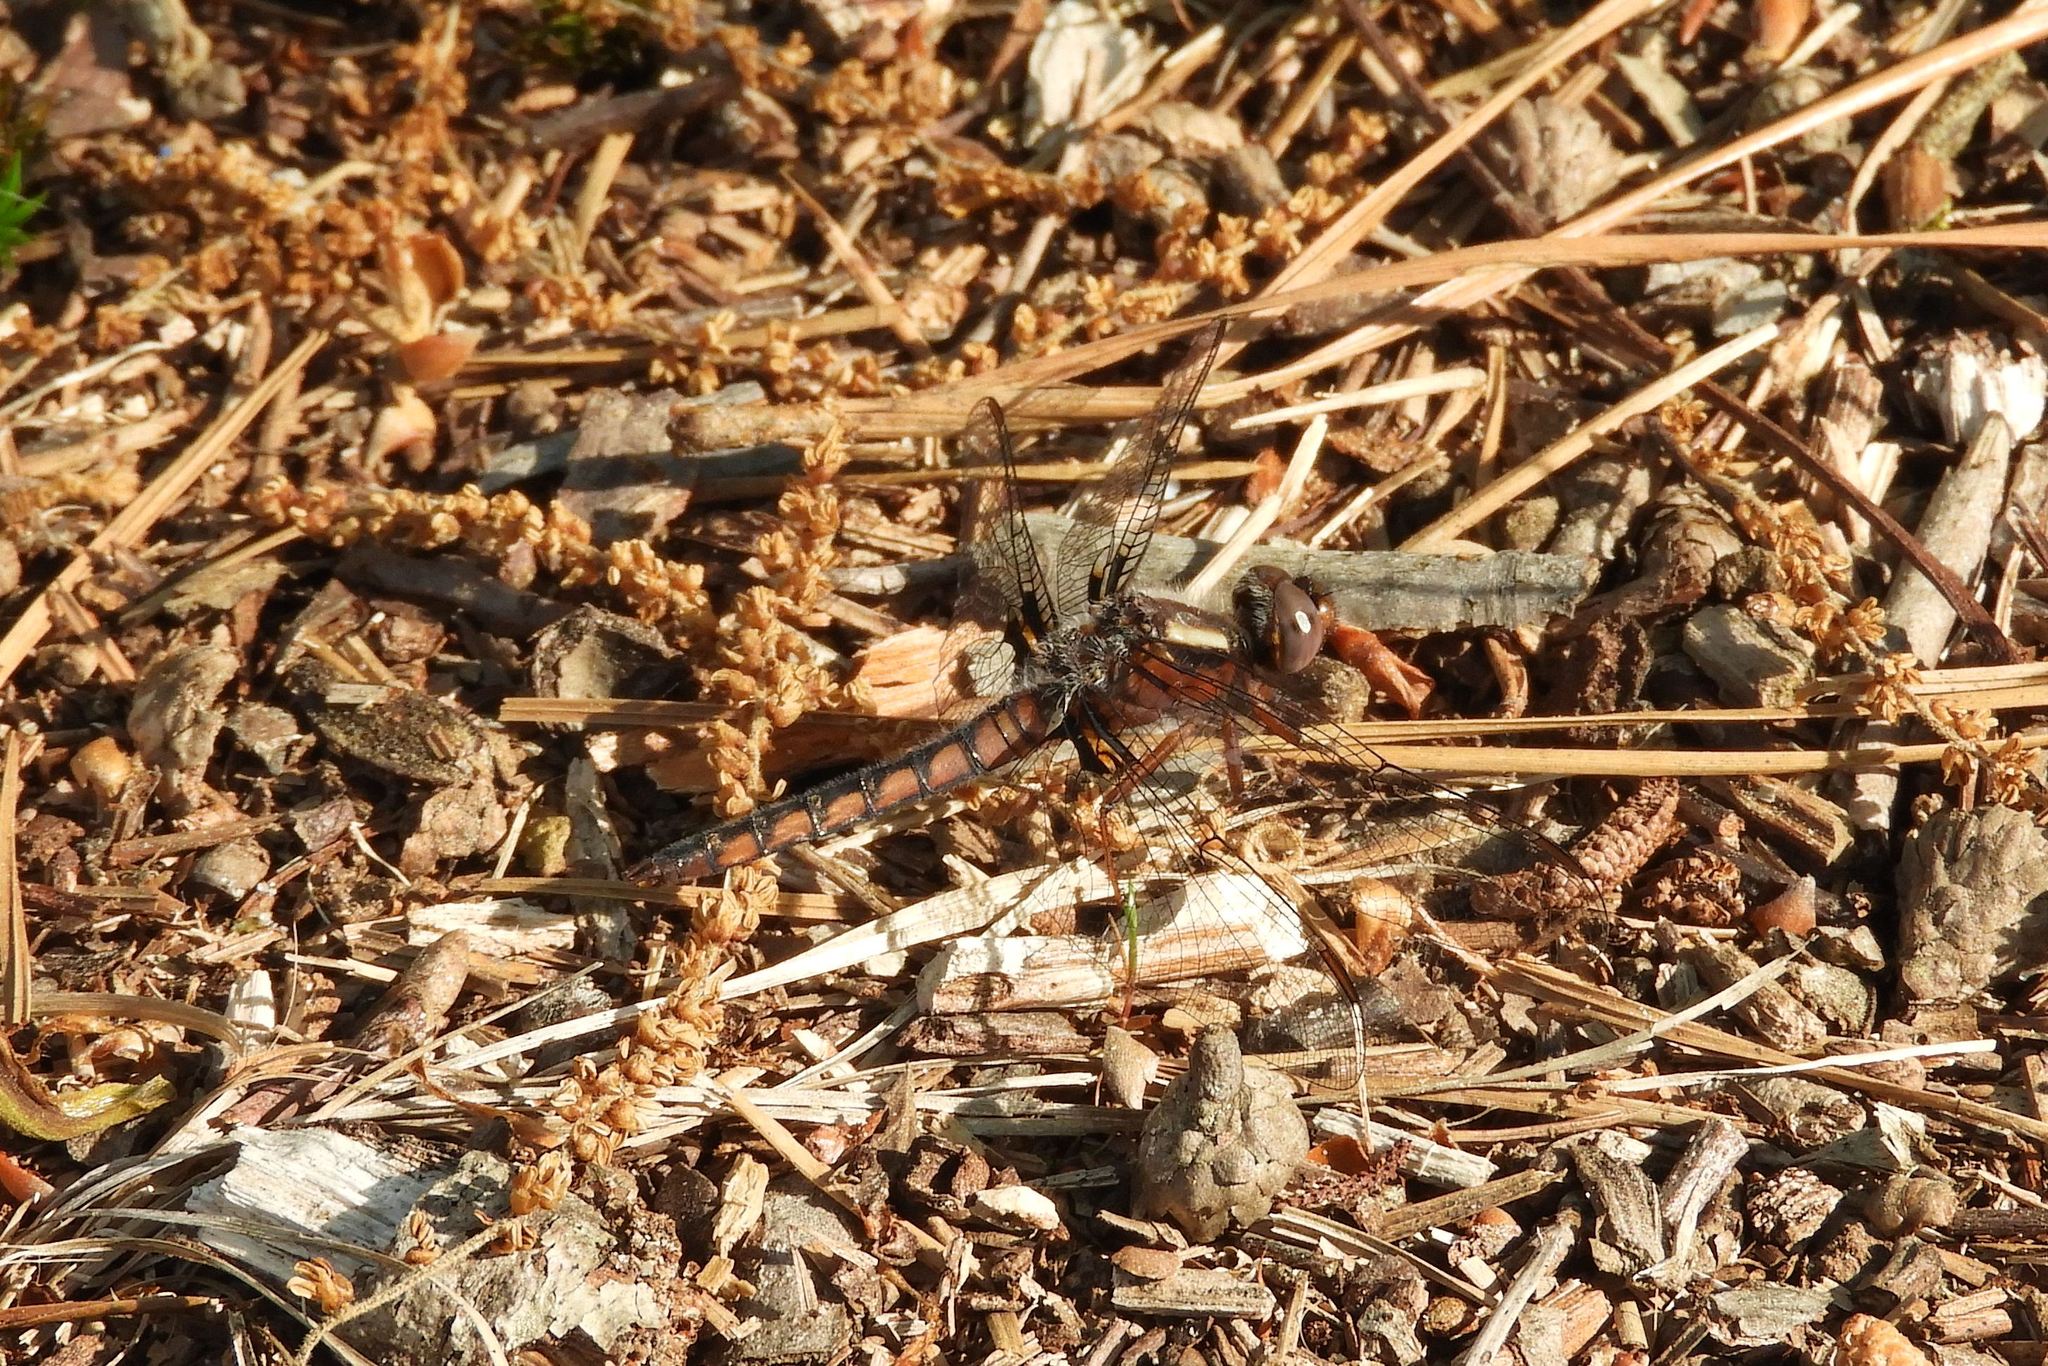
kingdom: Animalia
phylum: Arthropoda
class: Insecta
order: Odonata
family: Libellulidae
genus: Ladona
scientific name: Ladona deplanata
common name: Blue corporal
